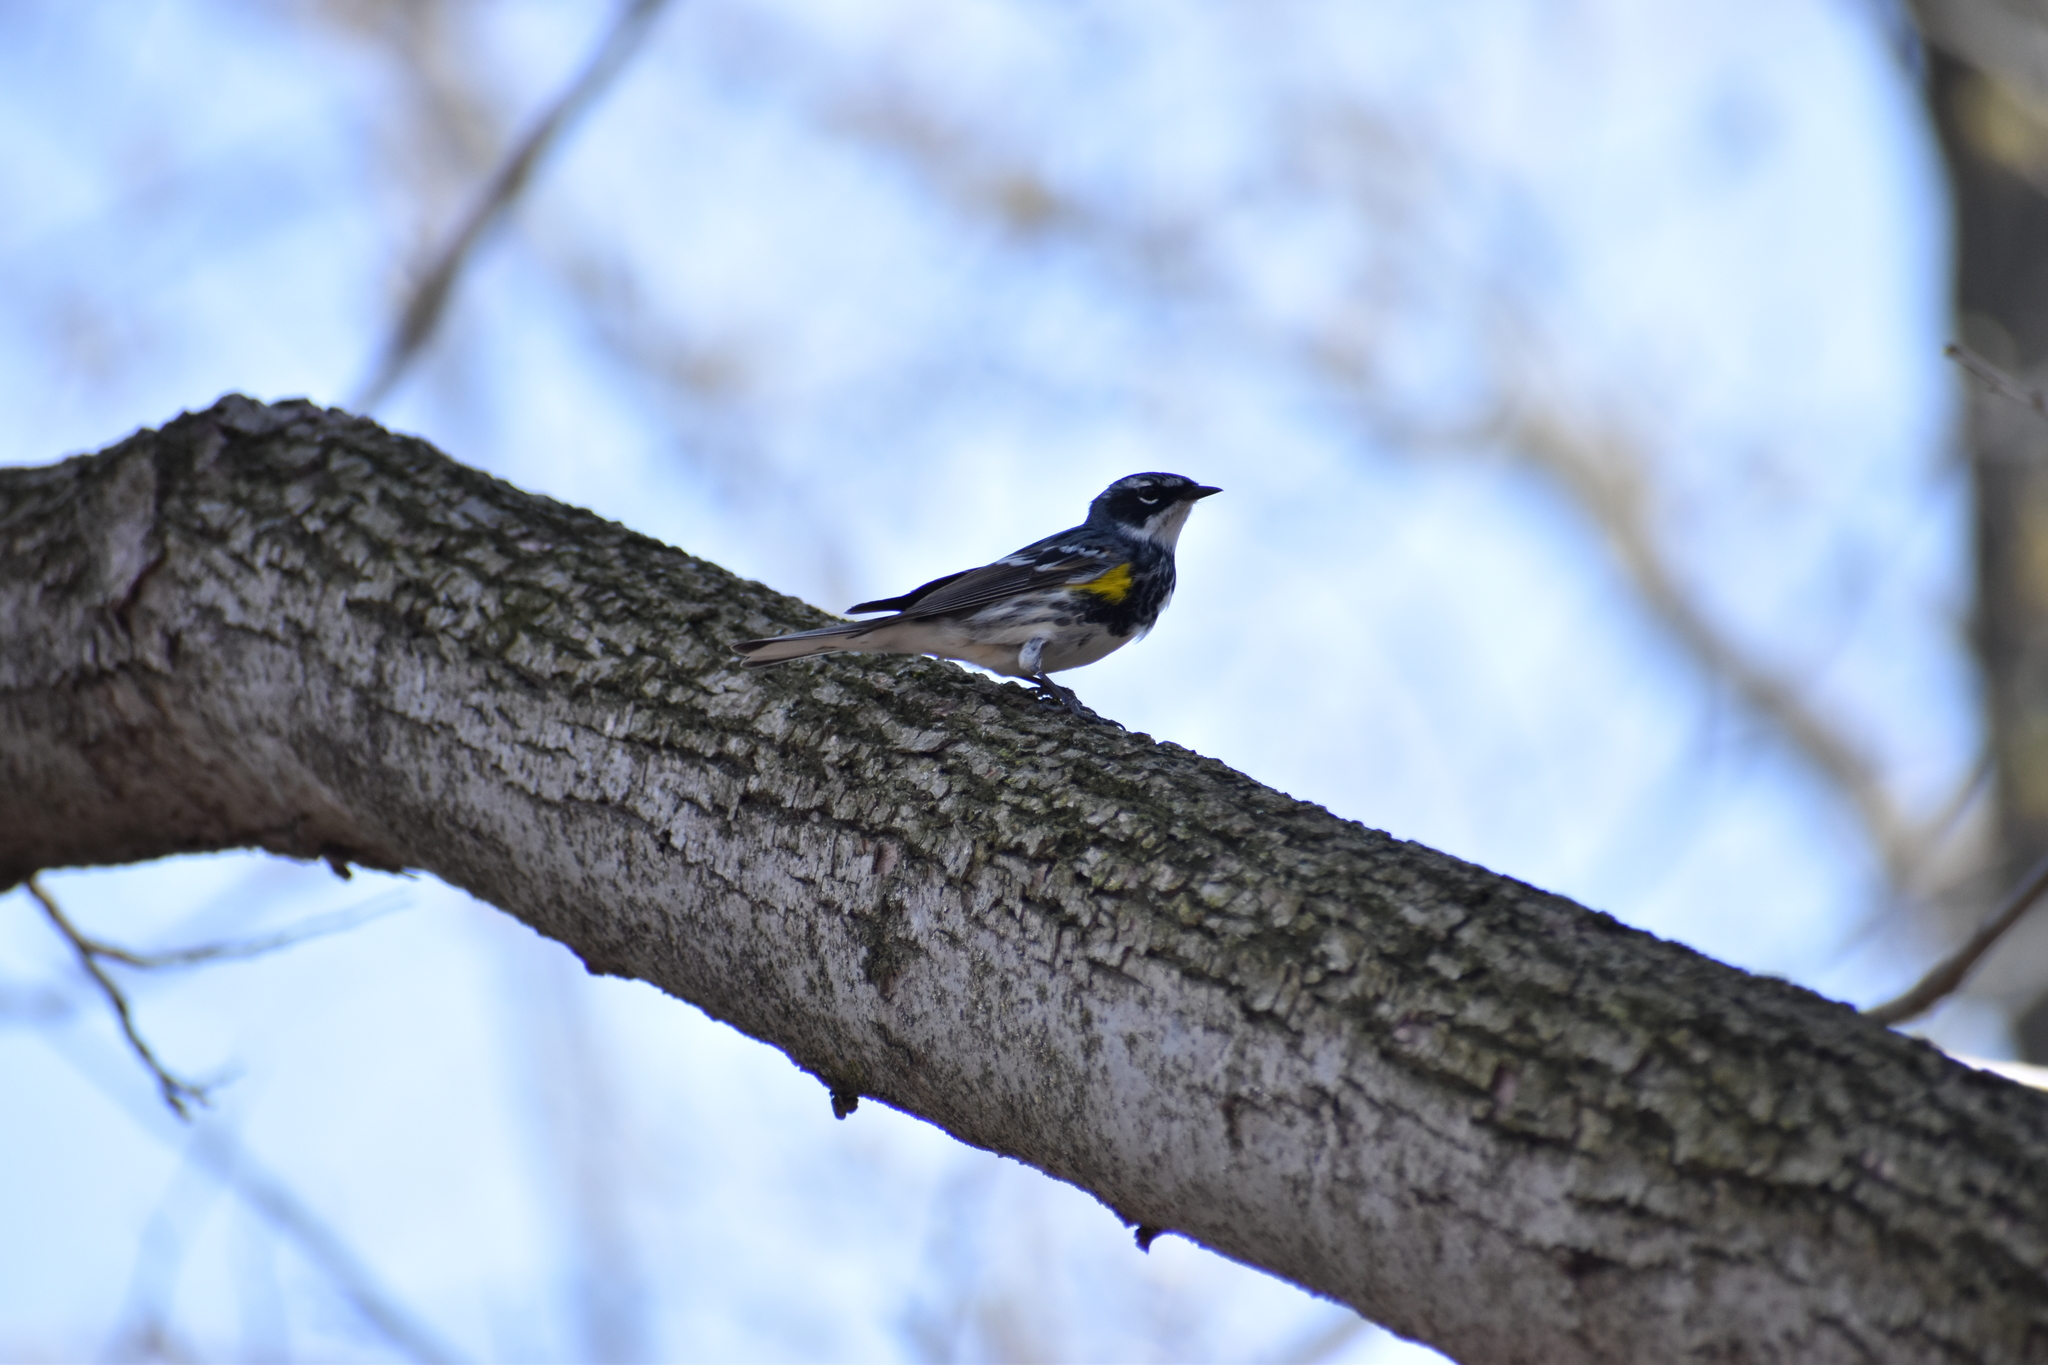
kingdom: Animalia
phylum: Chordata
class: Aves
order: Passeriformes
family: Parulidae
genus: Setophaga
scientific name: Setophaga coronata
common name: Myrtle warbler
